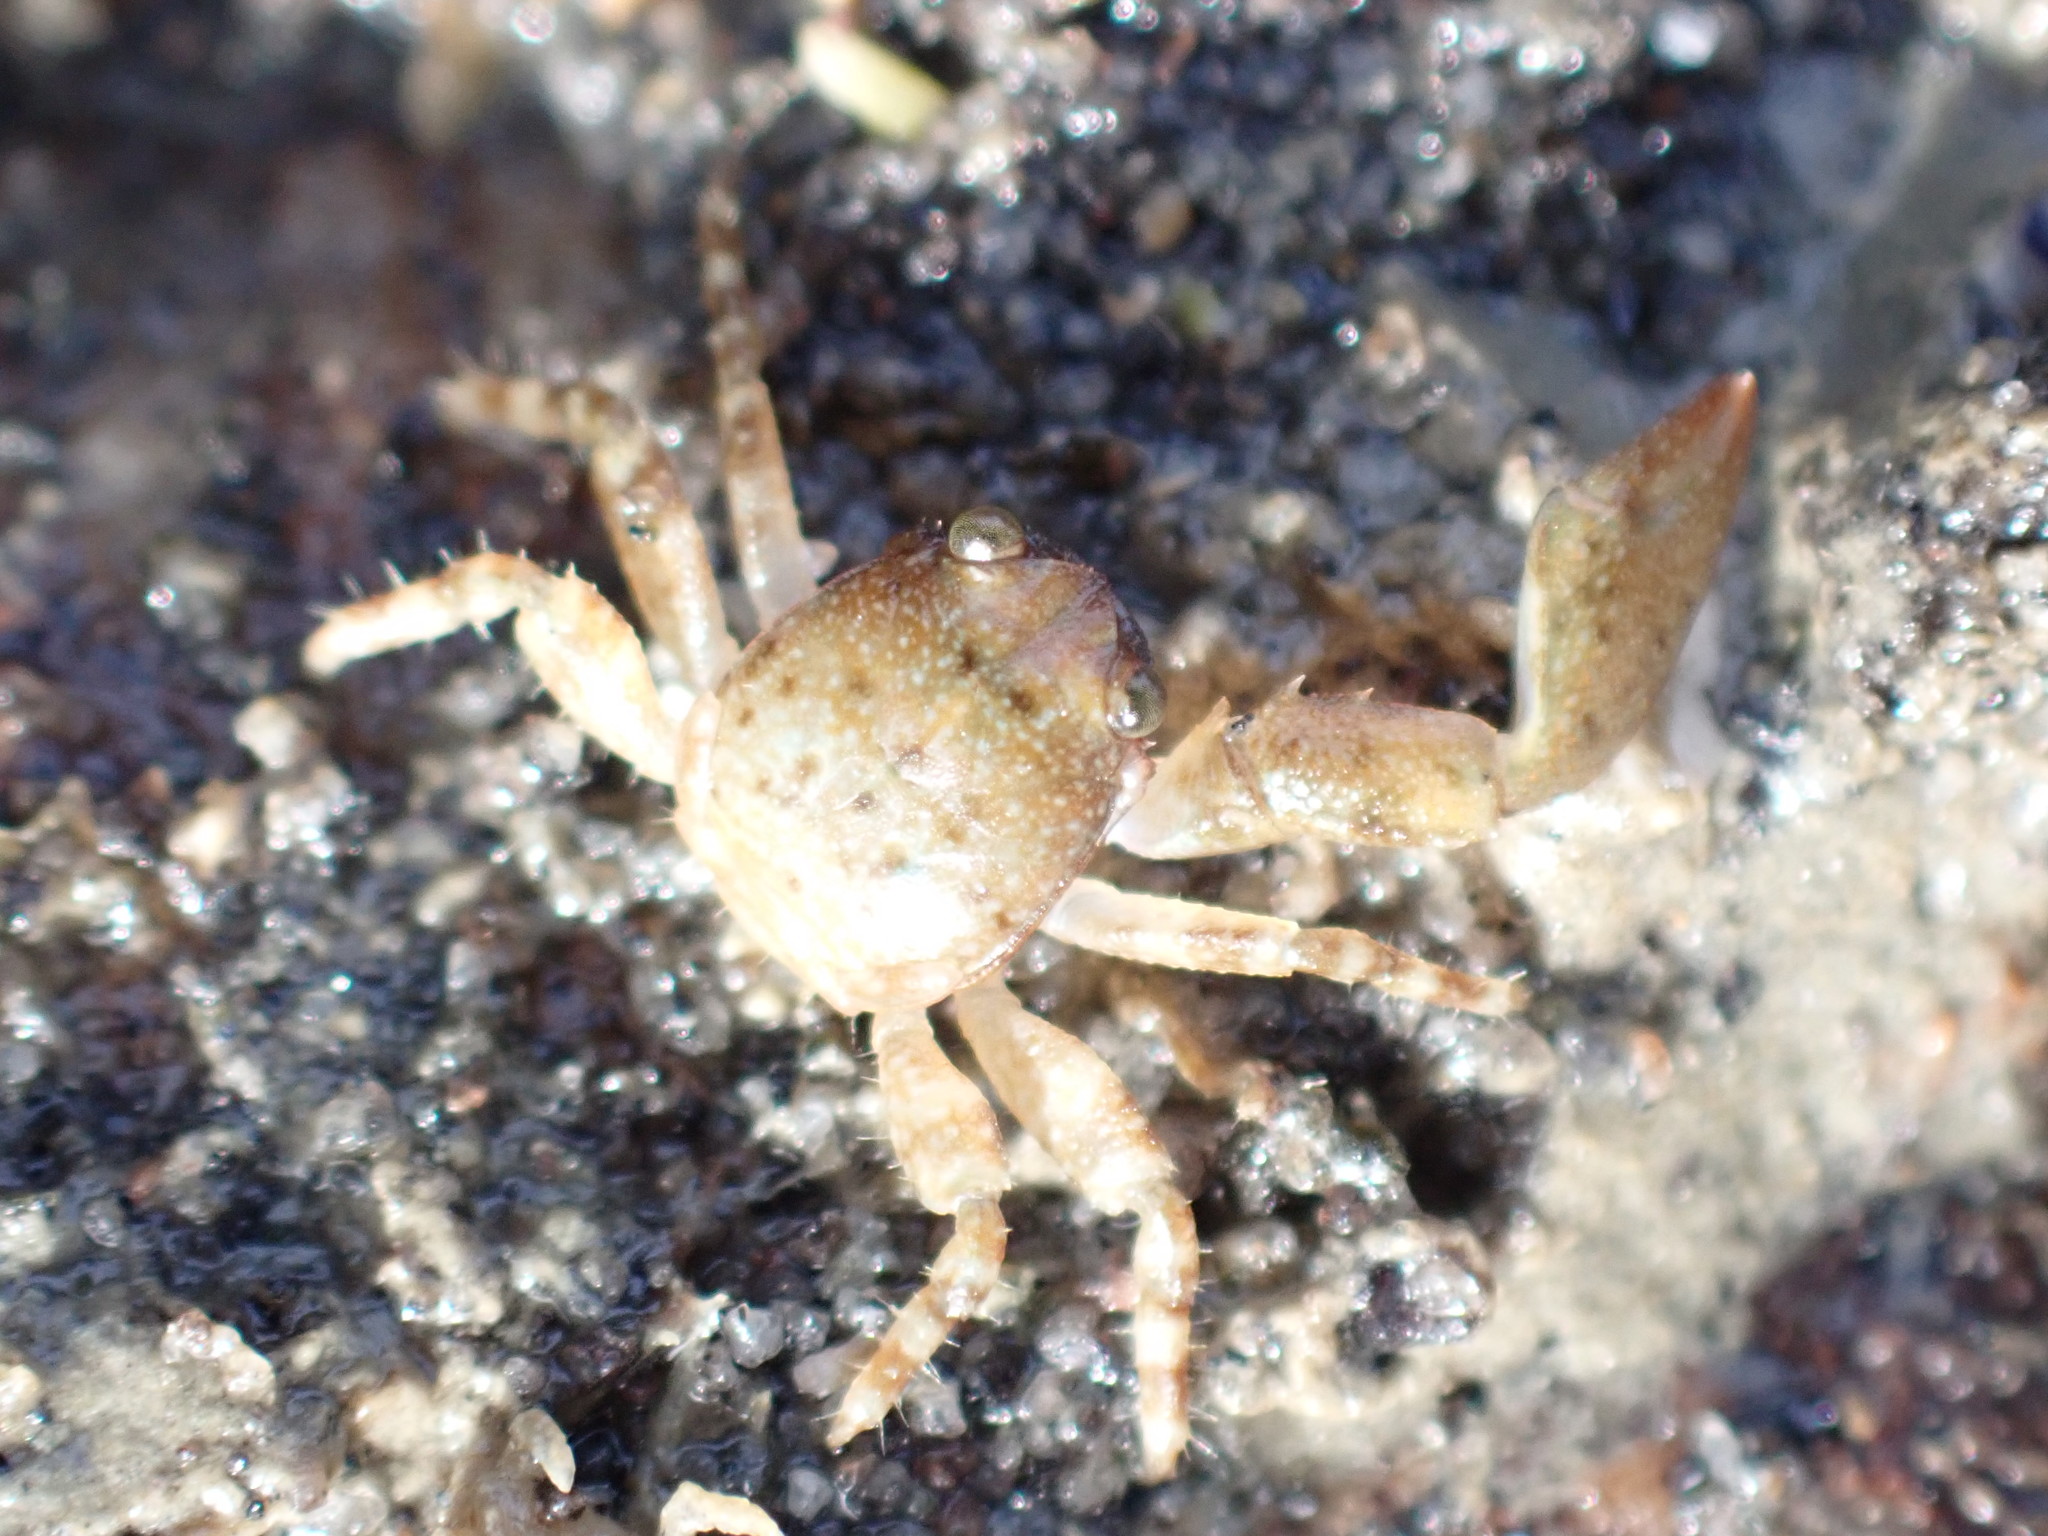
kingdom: Animalia
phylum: Arthropoda
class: Malacostraca
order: Decapoda
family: Porcellanidae
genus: Petrocheles
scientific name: Petrocheles spinosus
